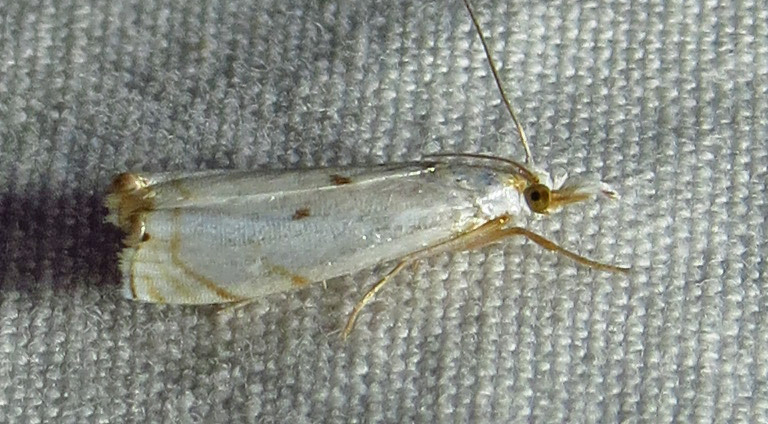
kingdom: Animalia
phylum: Arthropoda
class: Insecta
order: Lepidoptera
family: Crambidae
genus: Microcrambus
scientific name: Microcrambus biguttellus
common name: Gold-stripe grass-veneer moth
